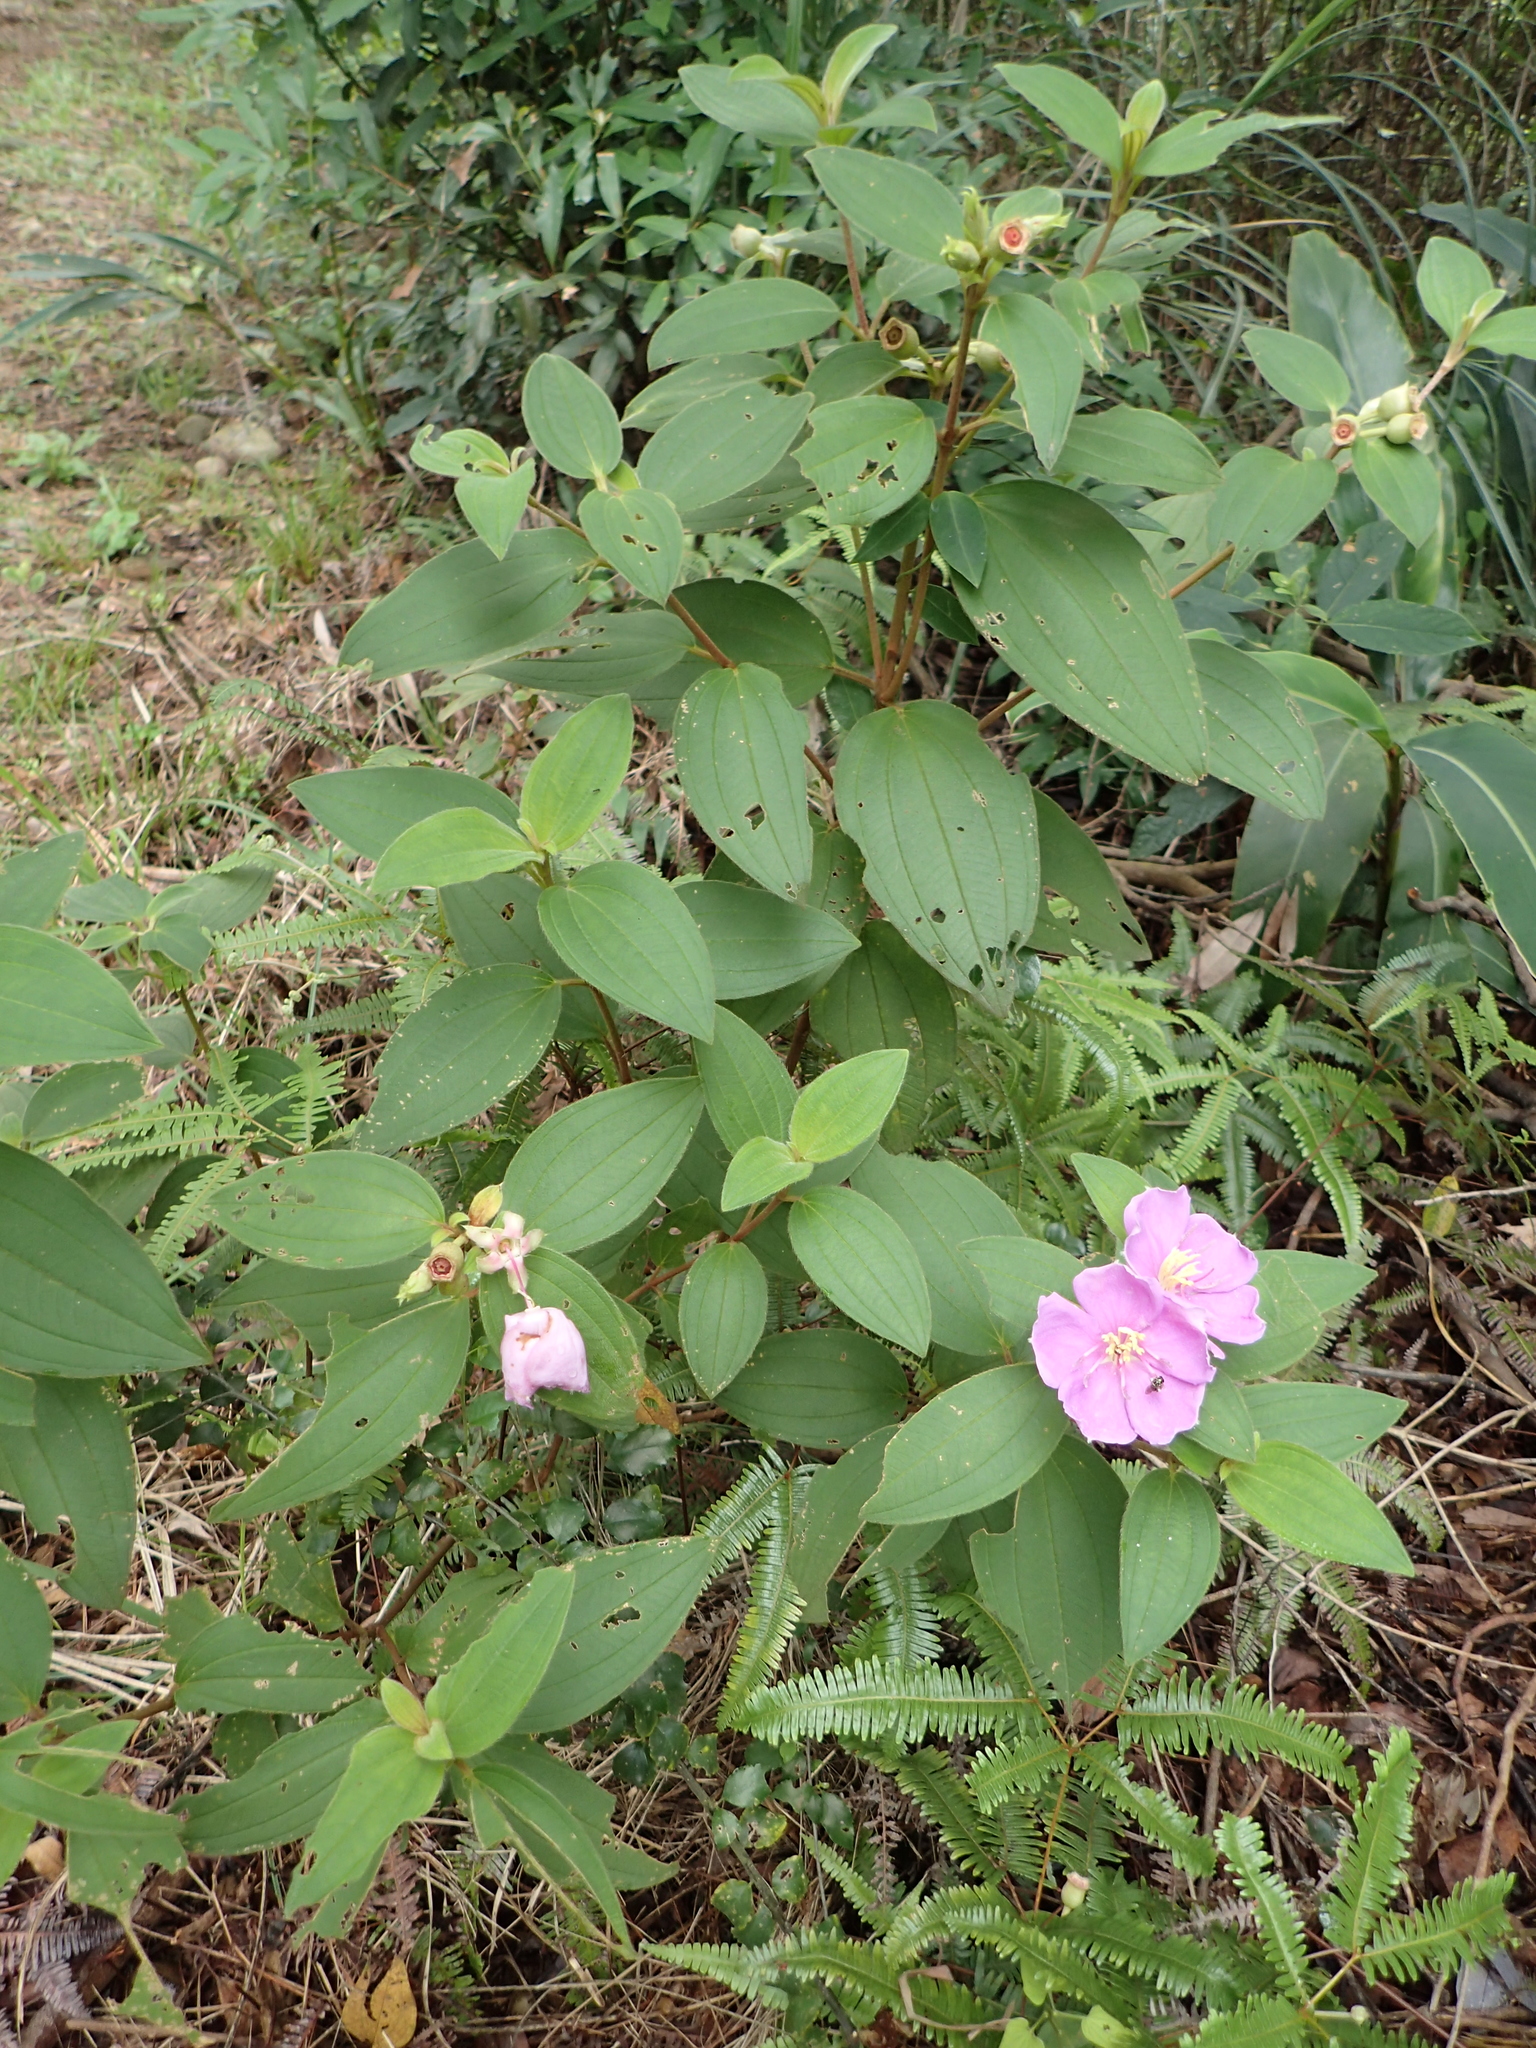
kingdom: Plantae
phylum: Tracheophyta
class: Magnoliopsida
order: Myrtales
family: Melastomataceae
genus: Melastoma
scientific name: Melastoma malabathricum
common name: Indian-rhododendron
